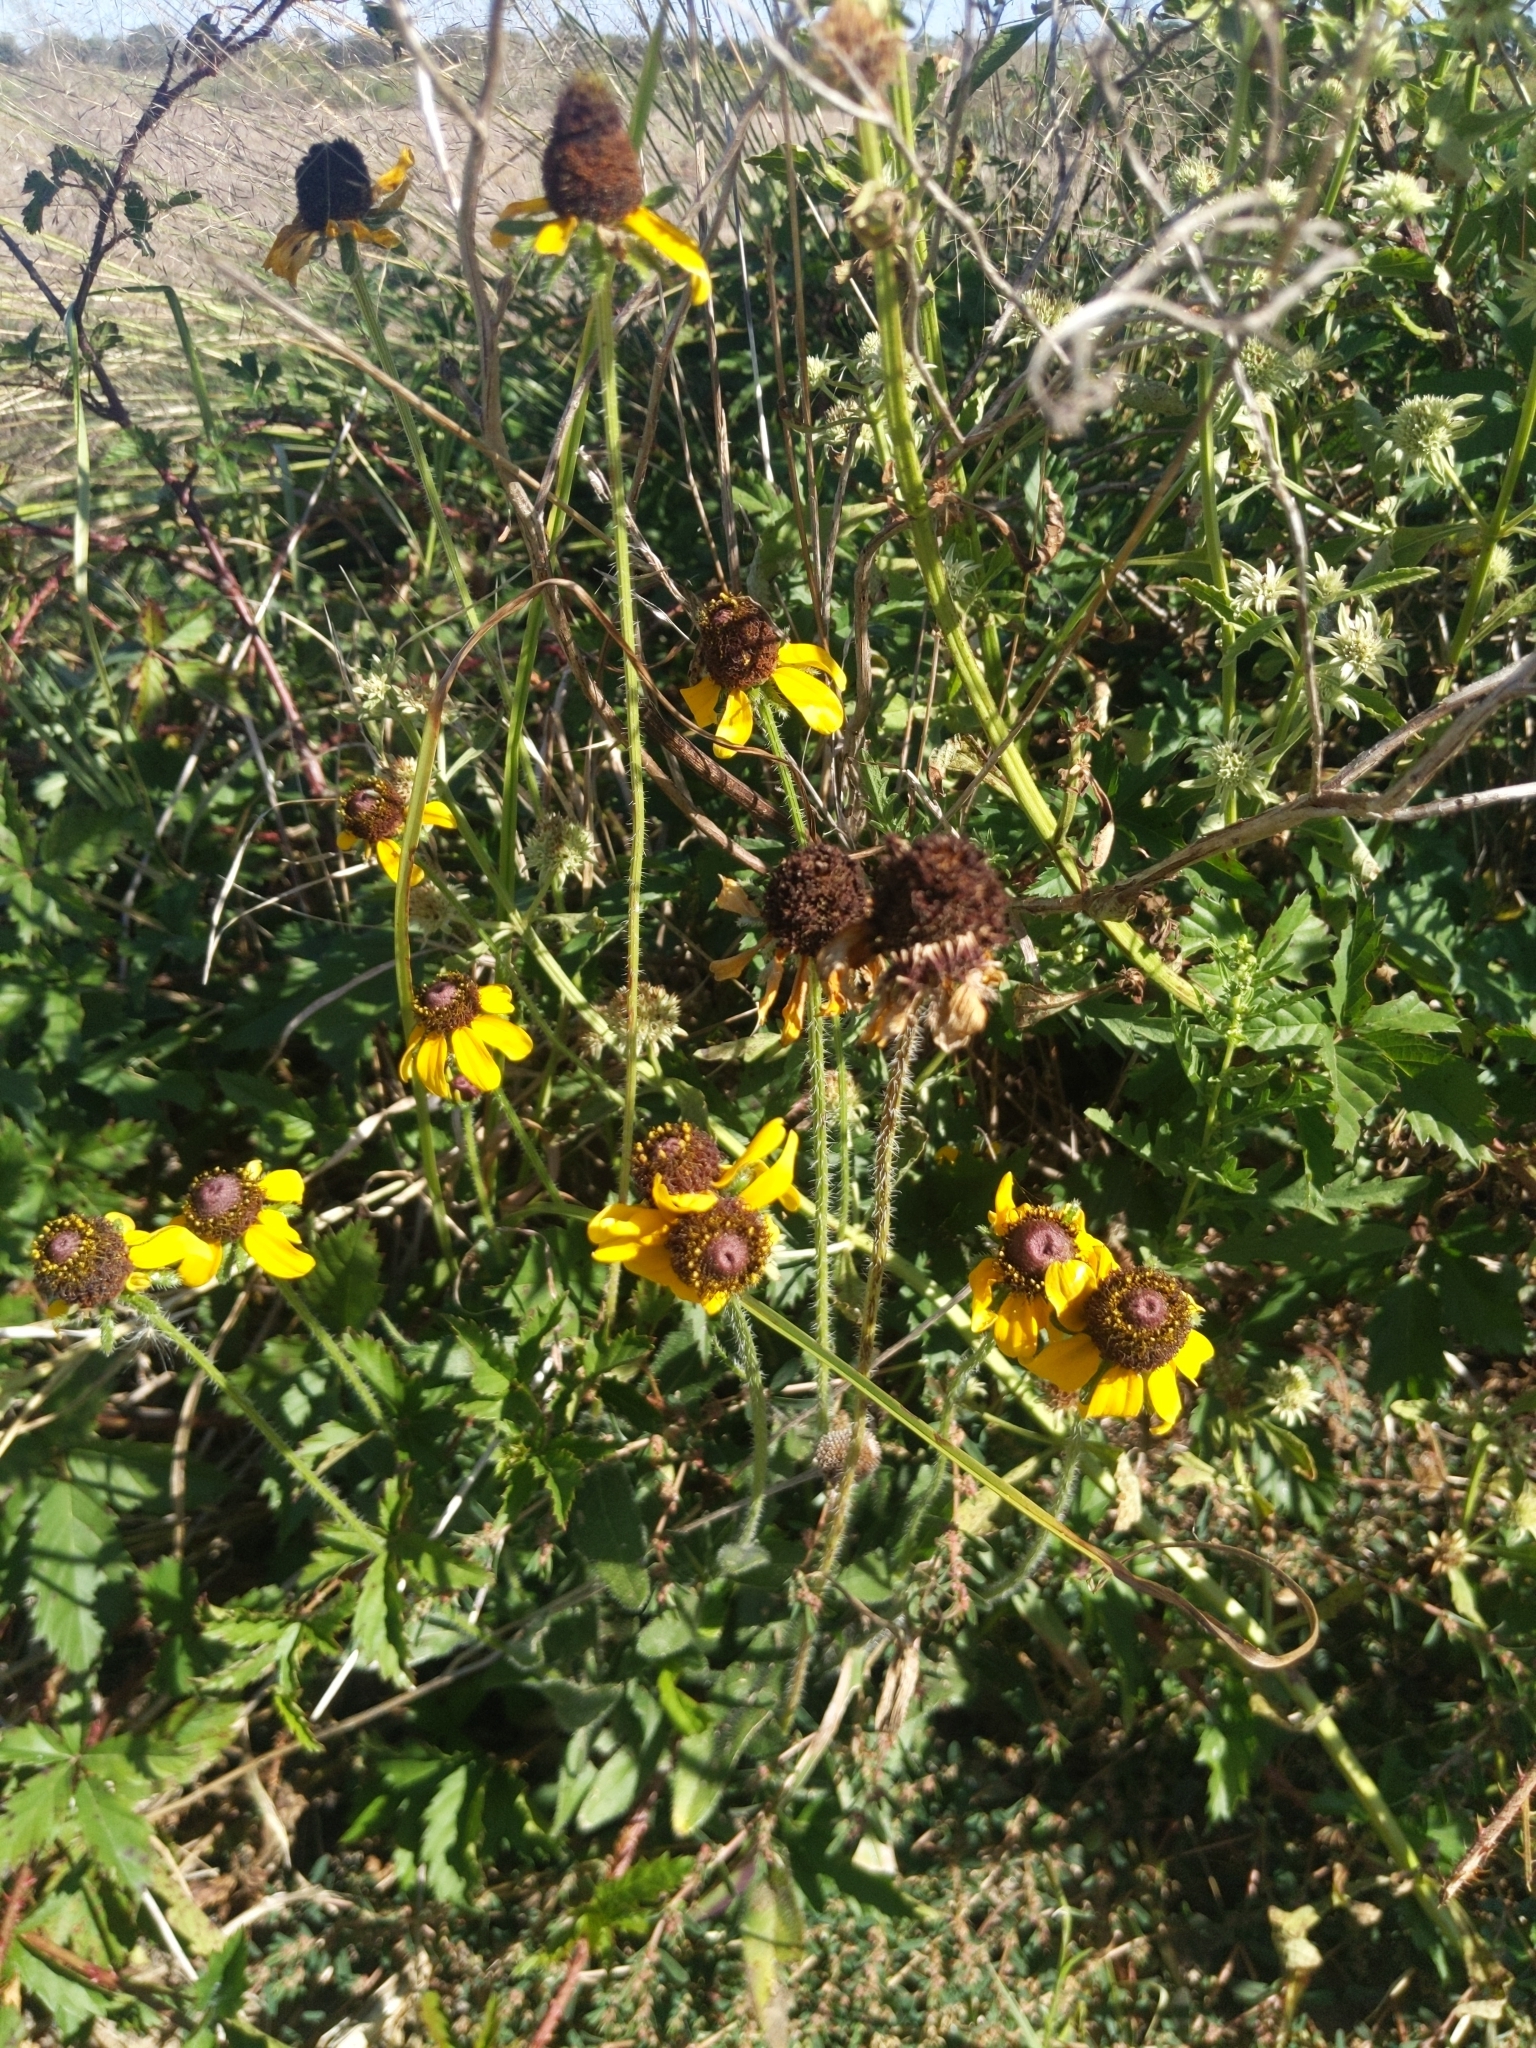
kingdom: Plantae
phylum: Tracheophyta
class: Magnoliopsida
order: Asterales
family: Asteraceae
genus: Rudbeckia
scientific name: Rudbeckia hirta
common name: Black-eyed-susan
